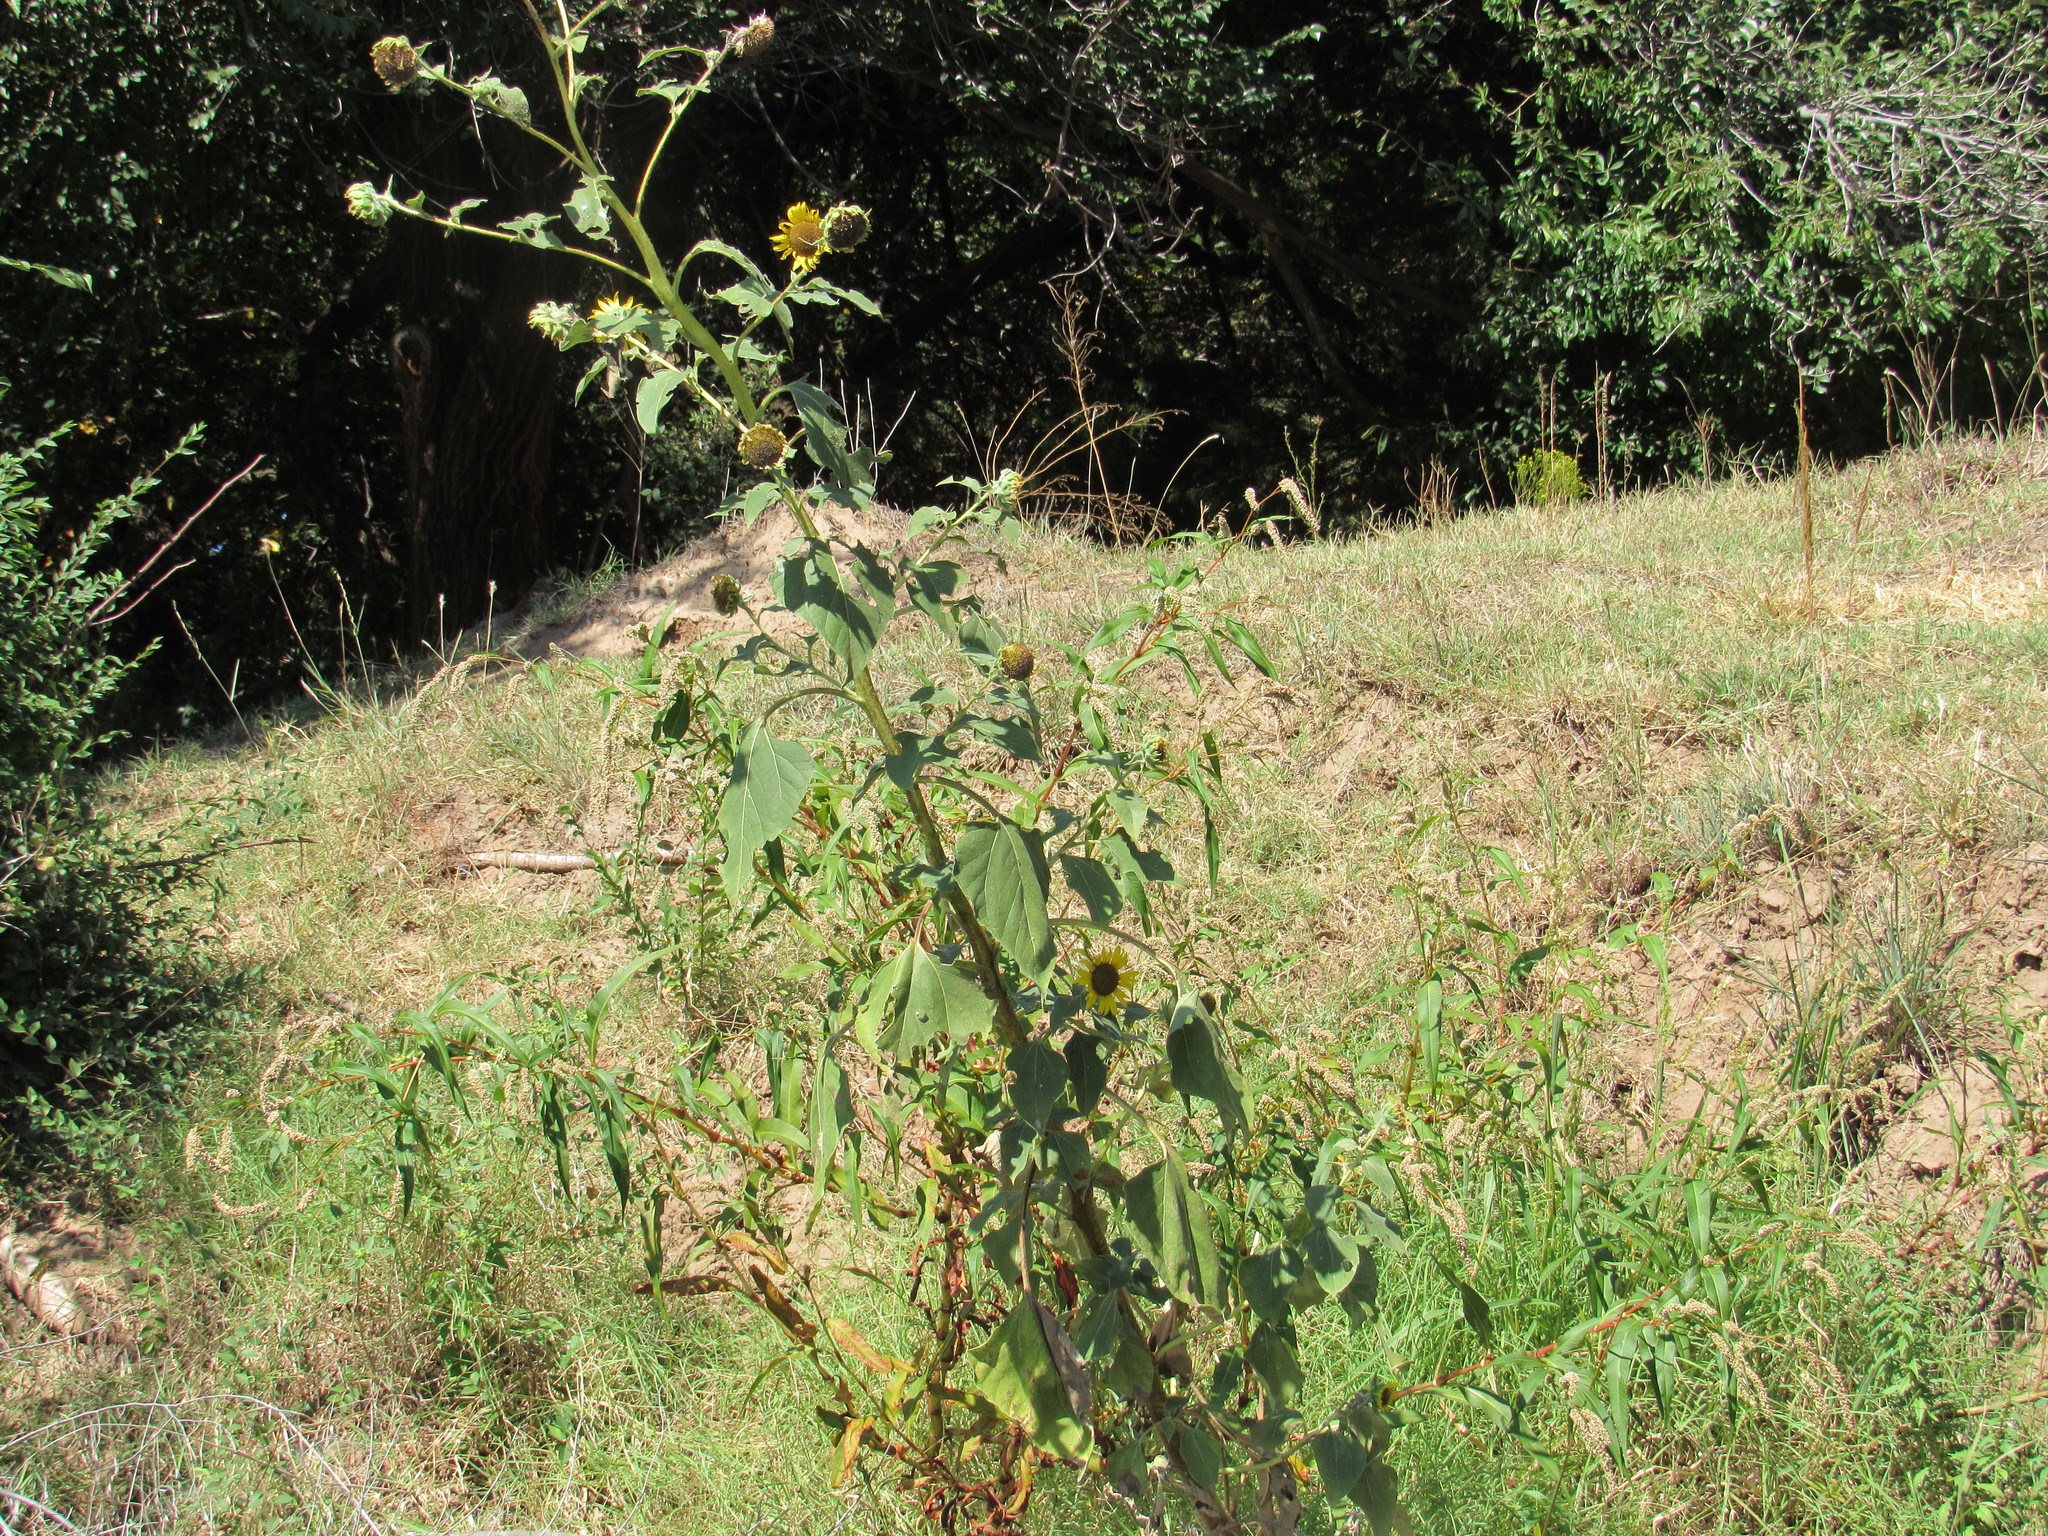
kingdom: Plantae
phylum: Tracheophyta
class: Magnoliopsida
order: Asterales
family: Asteraceae
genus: Helianthus
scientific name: Helianthus annuus
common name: Sunflower
